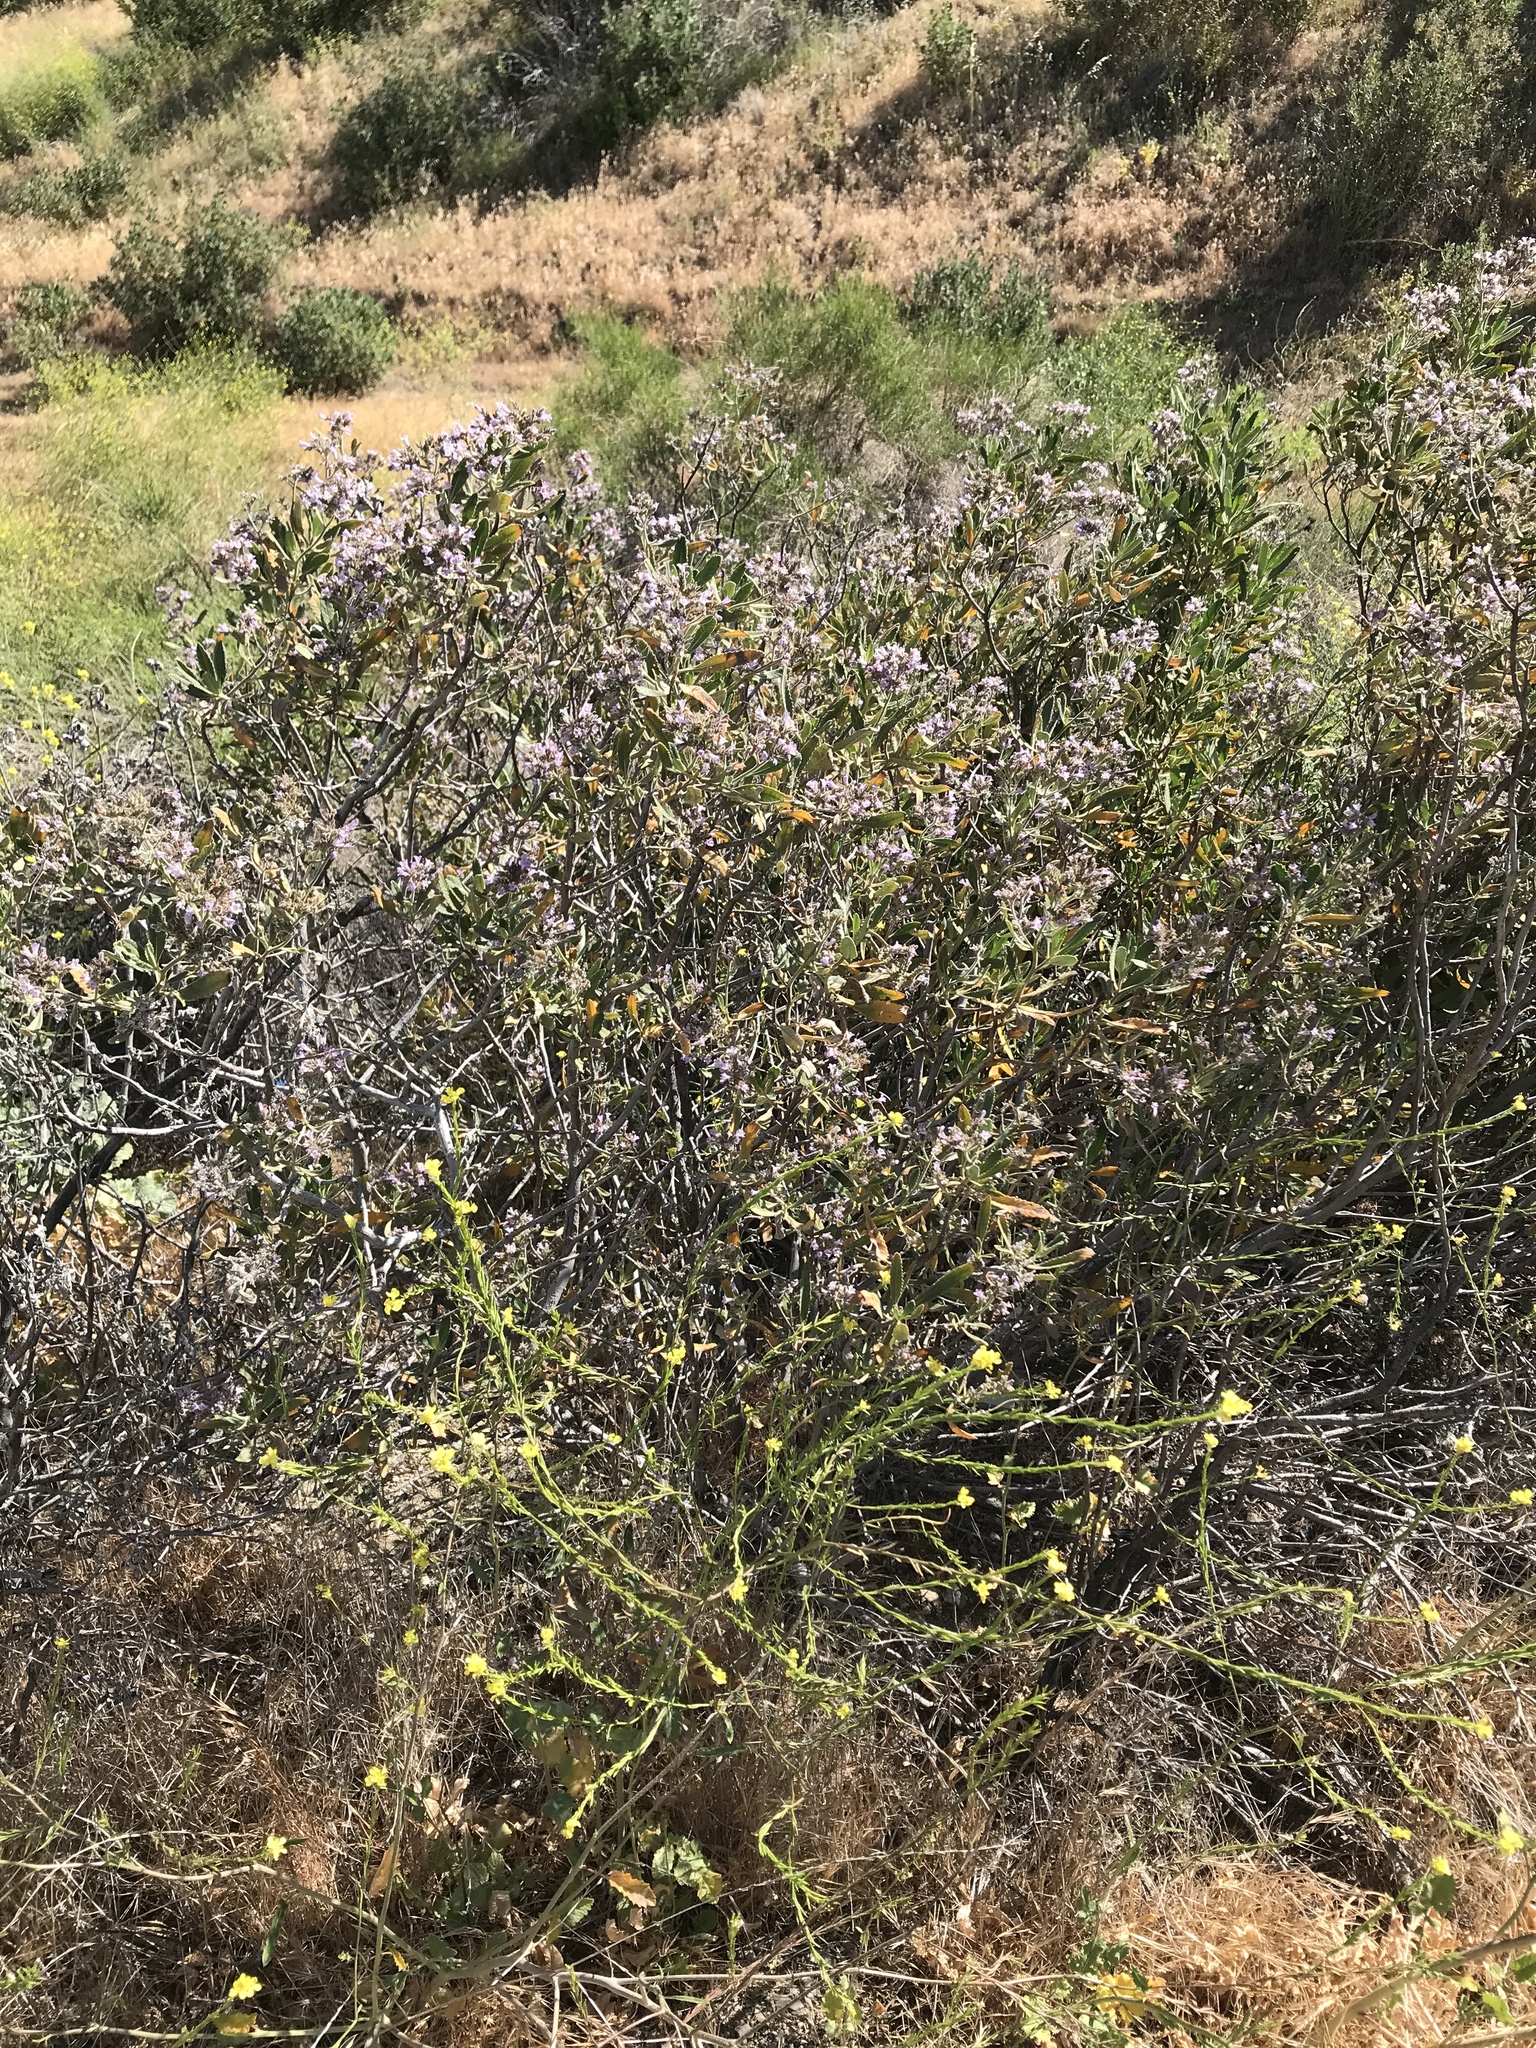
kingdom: Plantae
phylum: Tracheophyta
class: Magnoliopsida
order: Boraginales
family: Namaceae
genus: Eriodictyon
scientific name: Eriodictyon crassifolium
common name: Thick-leaf yerba-santa
